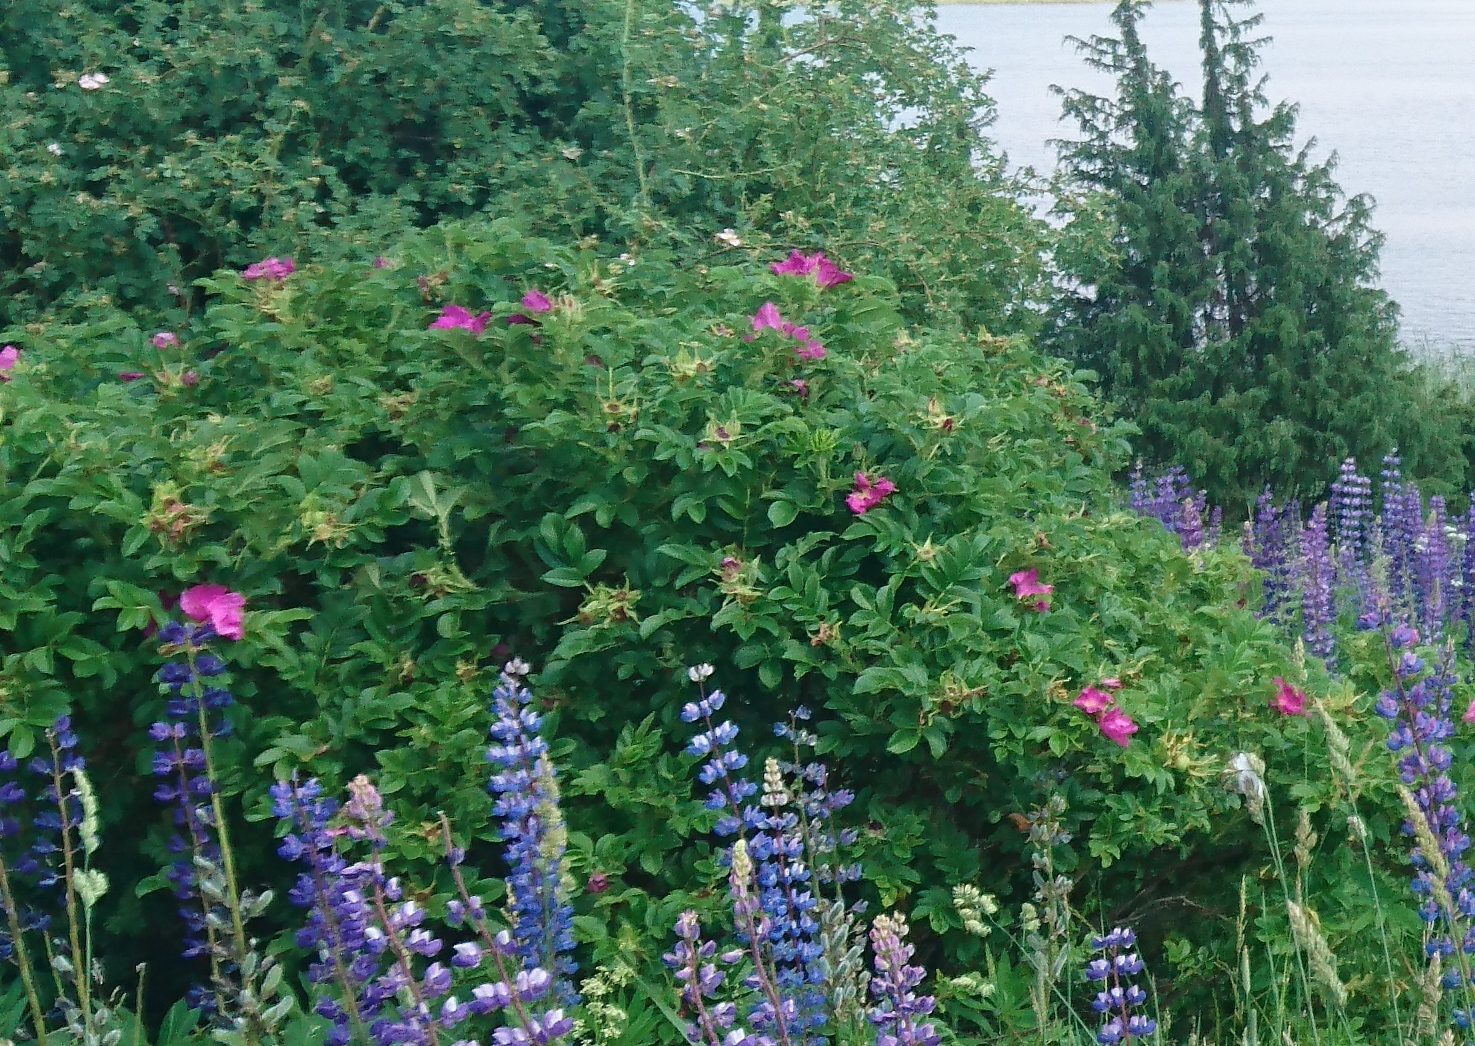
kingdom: Plantae
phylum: Tracheophyta
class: Magnoliopsida
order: Rosales
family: Rosaceae
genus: Rosa
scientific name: Rosa rugosa
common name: Japanese rose
